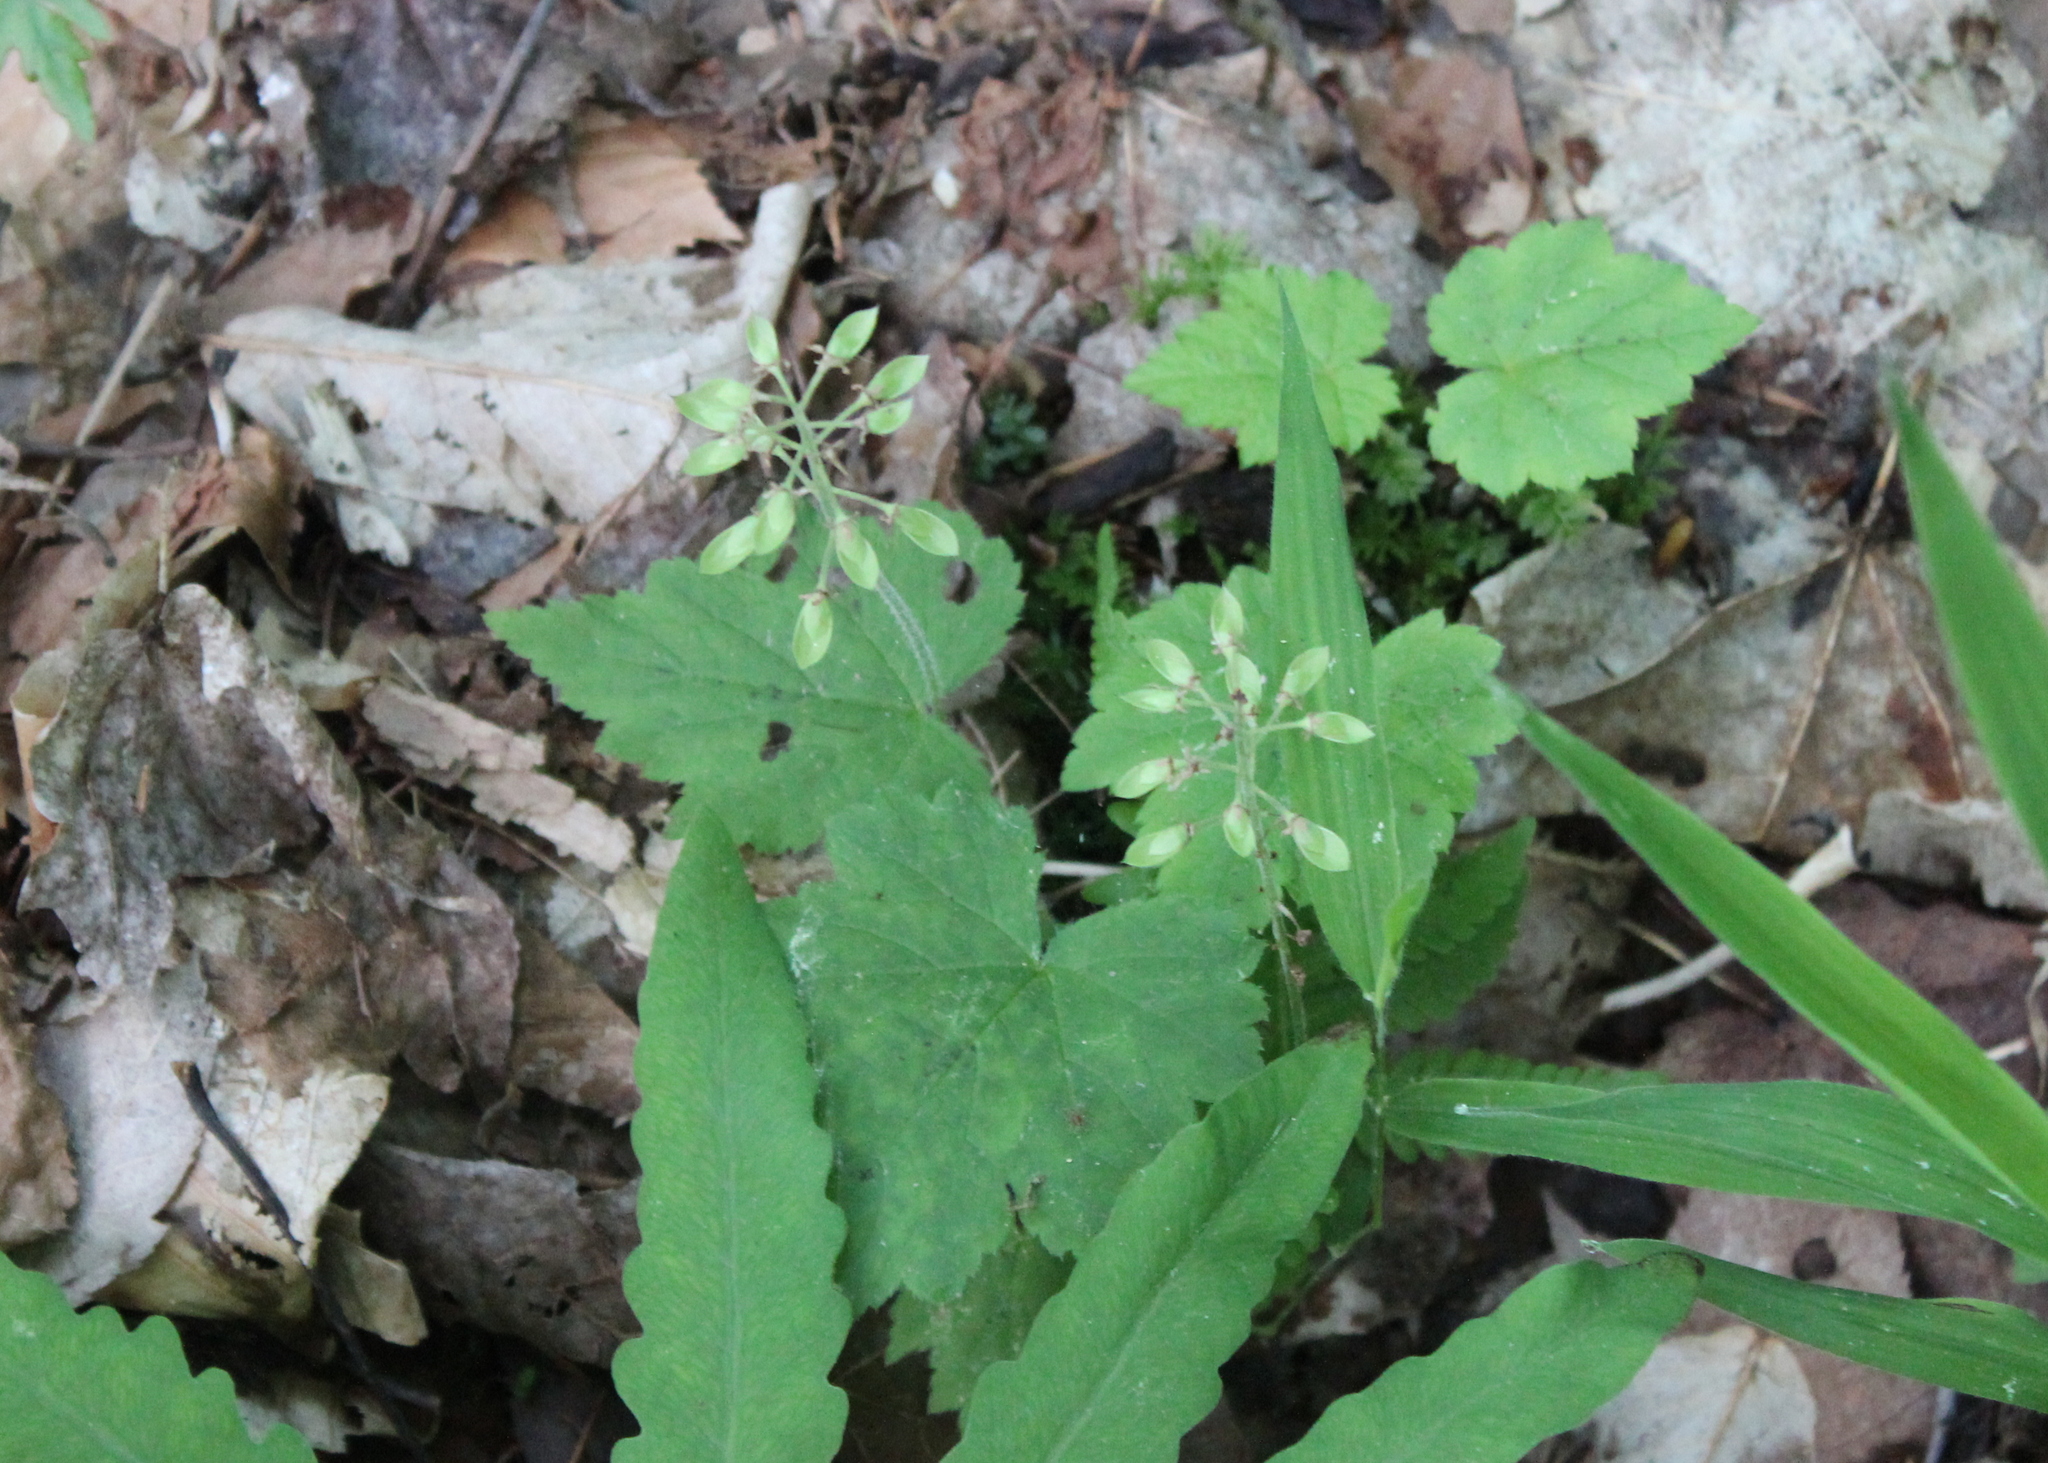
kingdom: Plantae
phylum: Tracheophyta
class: Magnoliopsida
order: Saxifragales
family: Saxifragaceae
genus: Tiarella
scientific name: Tiarella stolonifera
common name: Stoloniferous foamflower
